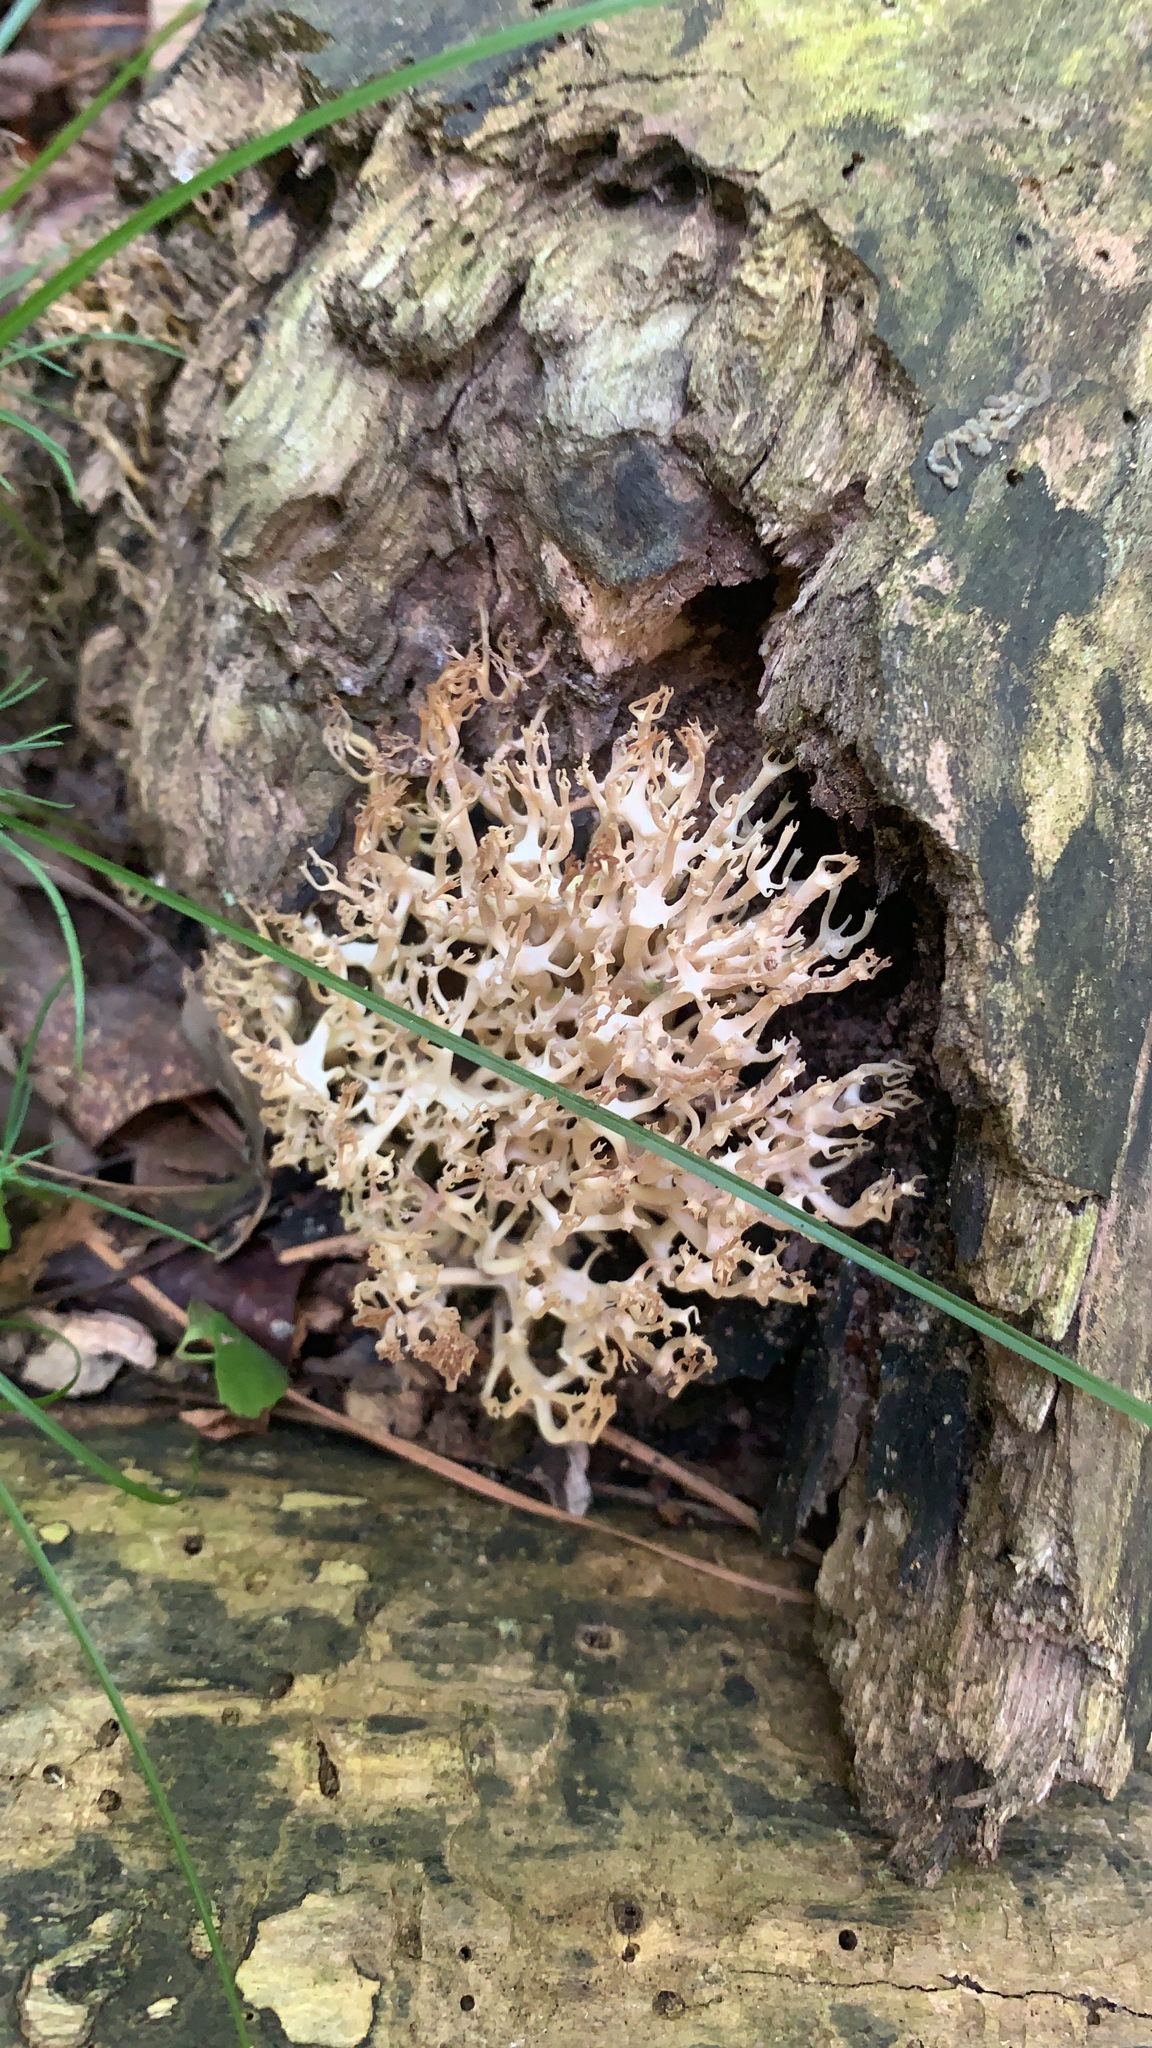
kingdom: Fungi
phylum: Basidiomycota
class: Agaricomycetes
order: Russulales
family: Auriscalpiaceae
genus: Artomyces
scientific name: Artomyces pyxidatus
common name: Crown-tipped coral fungus
